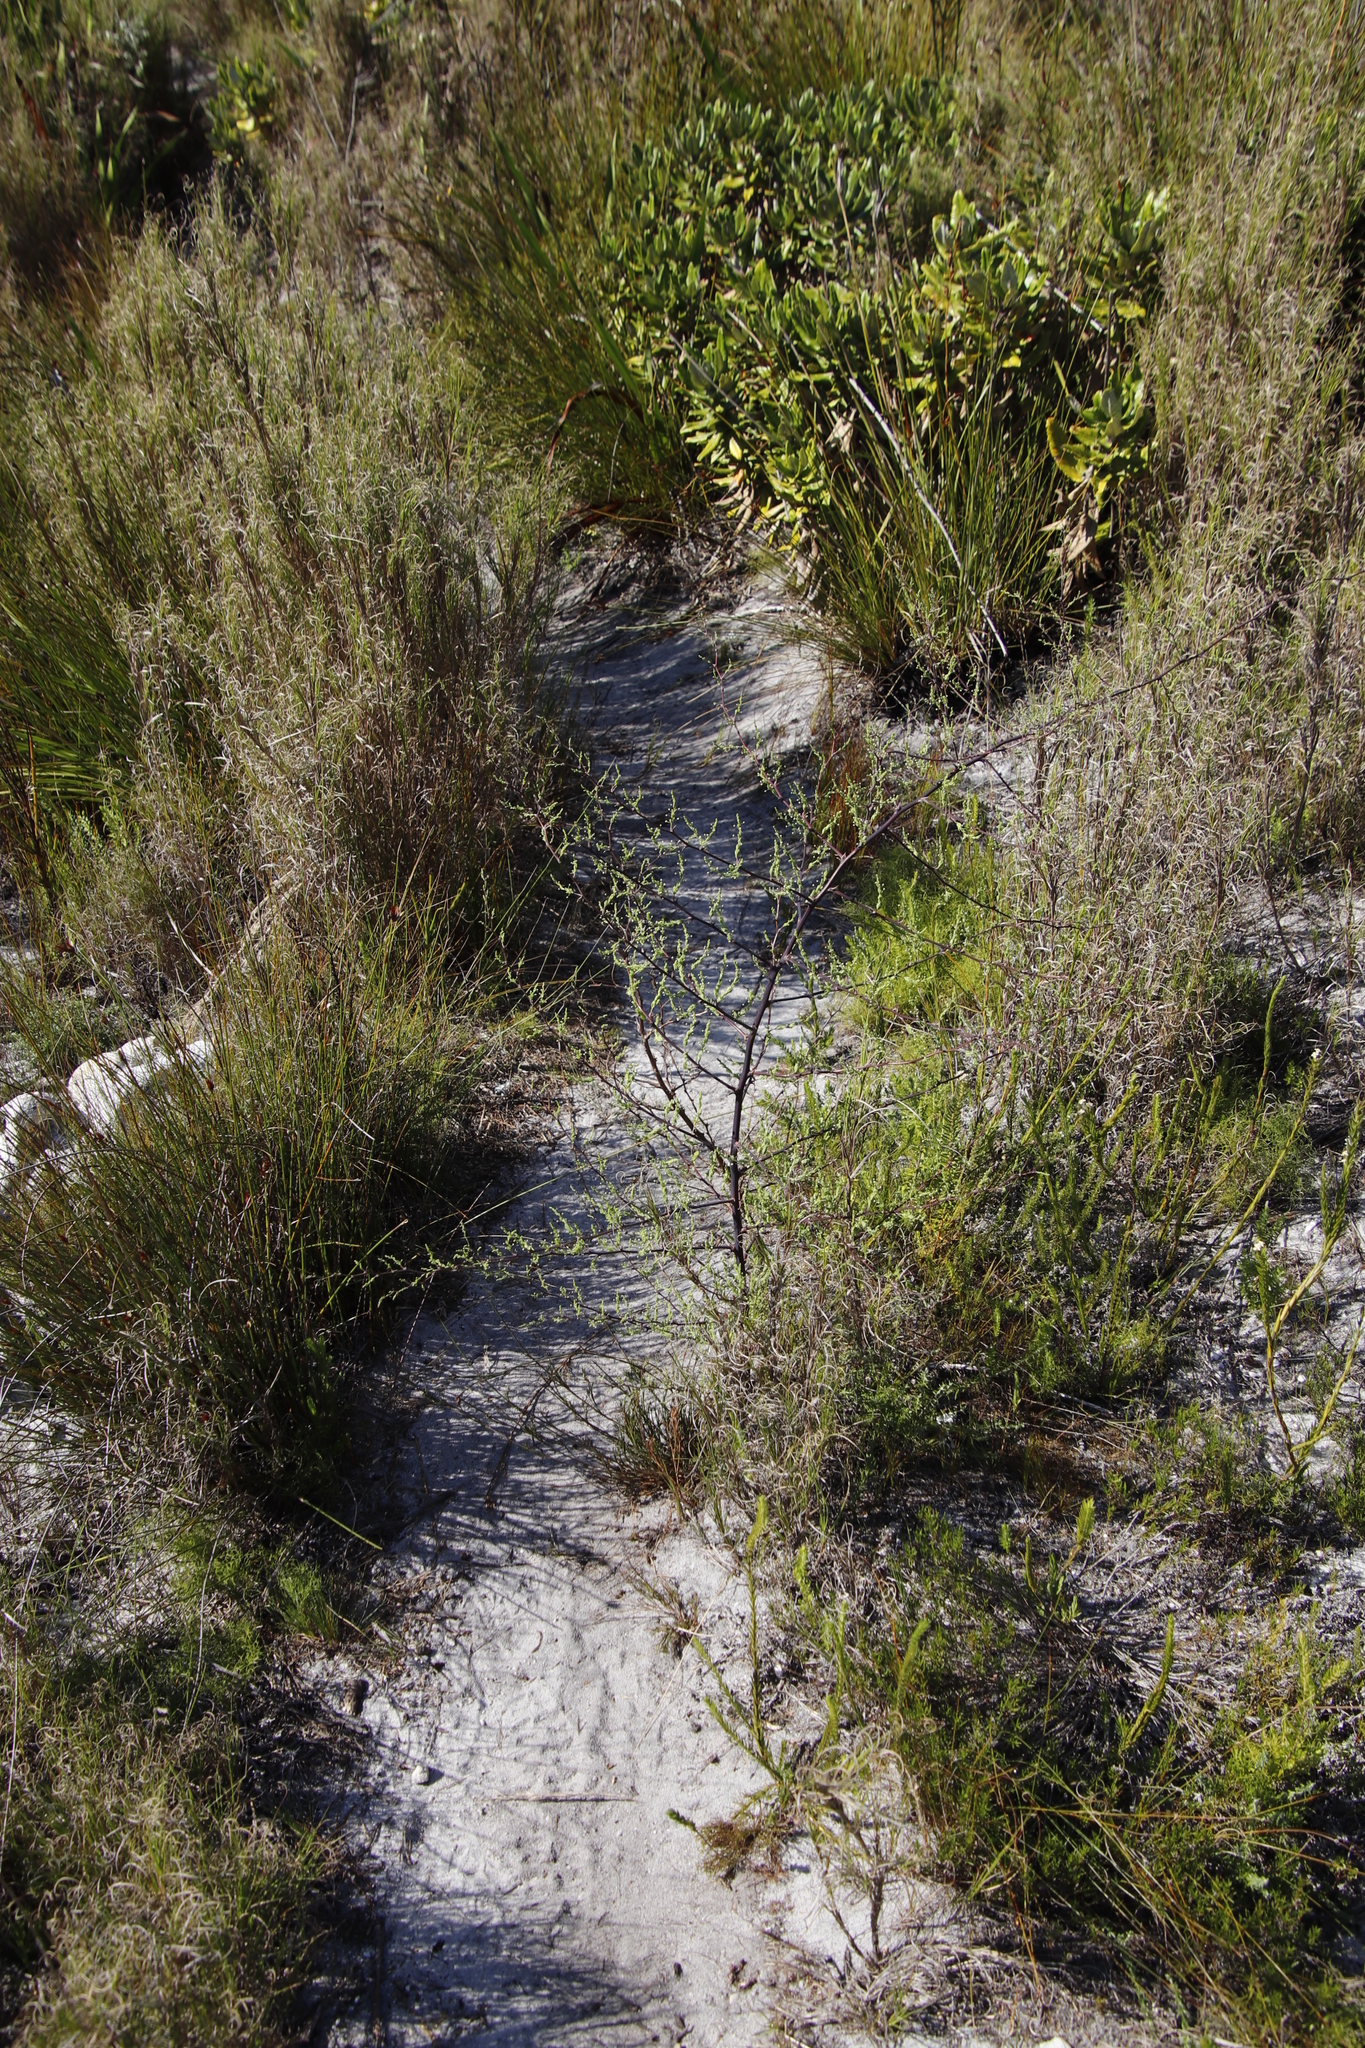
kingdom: Plantae
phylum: Tracheophyta
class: Liliopsida
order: Asparagales
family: Asparagaceae
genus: Asparagus
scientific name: Asparagus rubicundus
